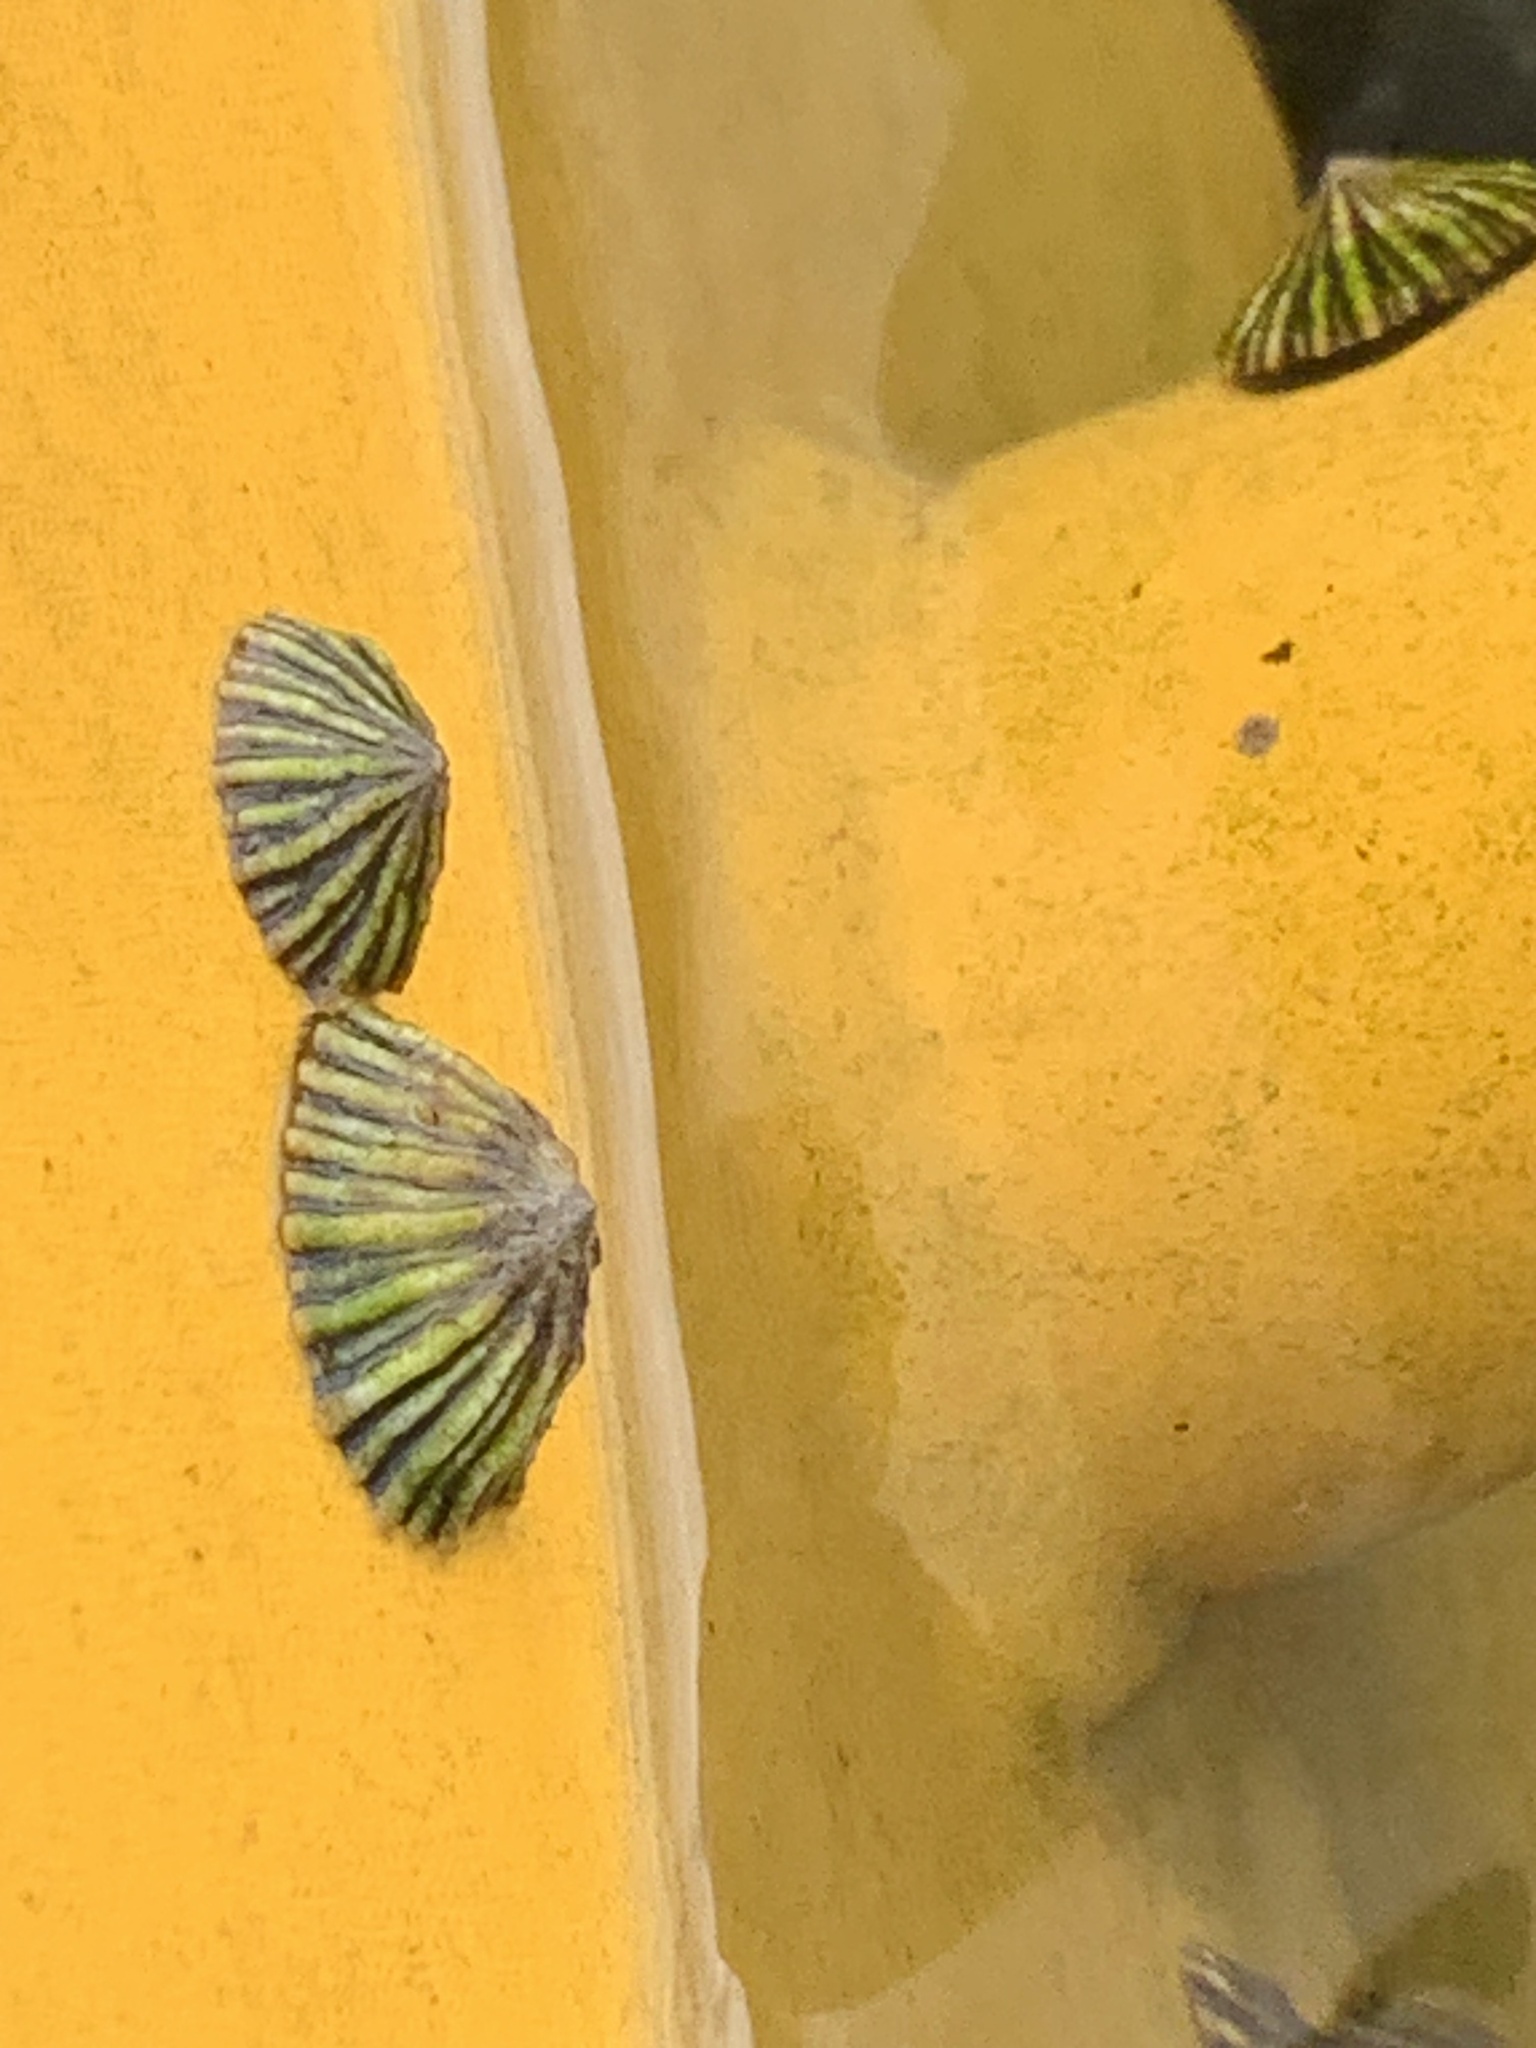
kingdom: Animalia
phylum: Mollusca
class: Gastropoda
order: Siphonariida
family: Siphonariidae
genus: Siphonaria
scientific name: Siphonaria diemenensis
